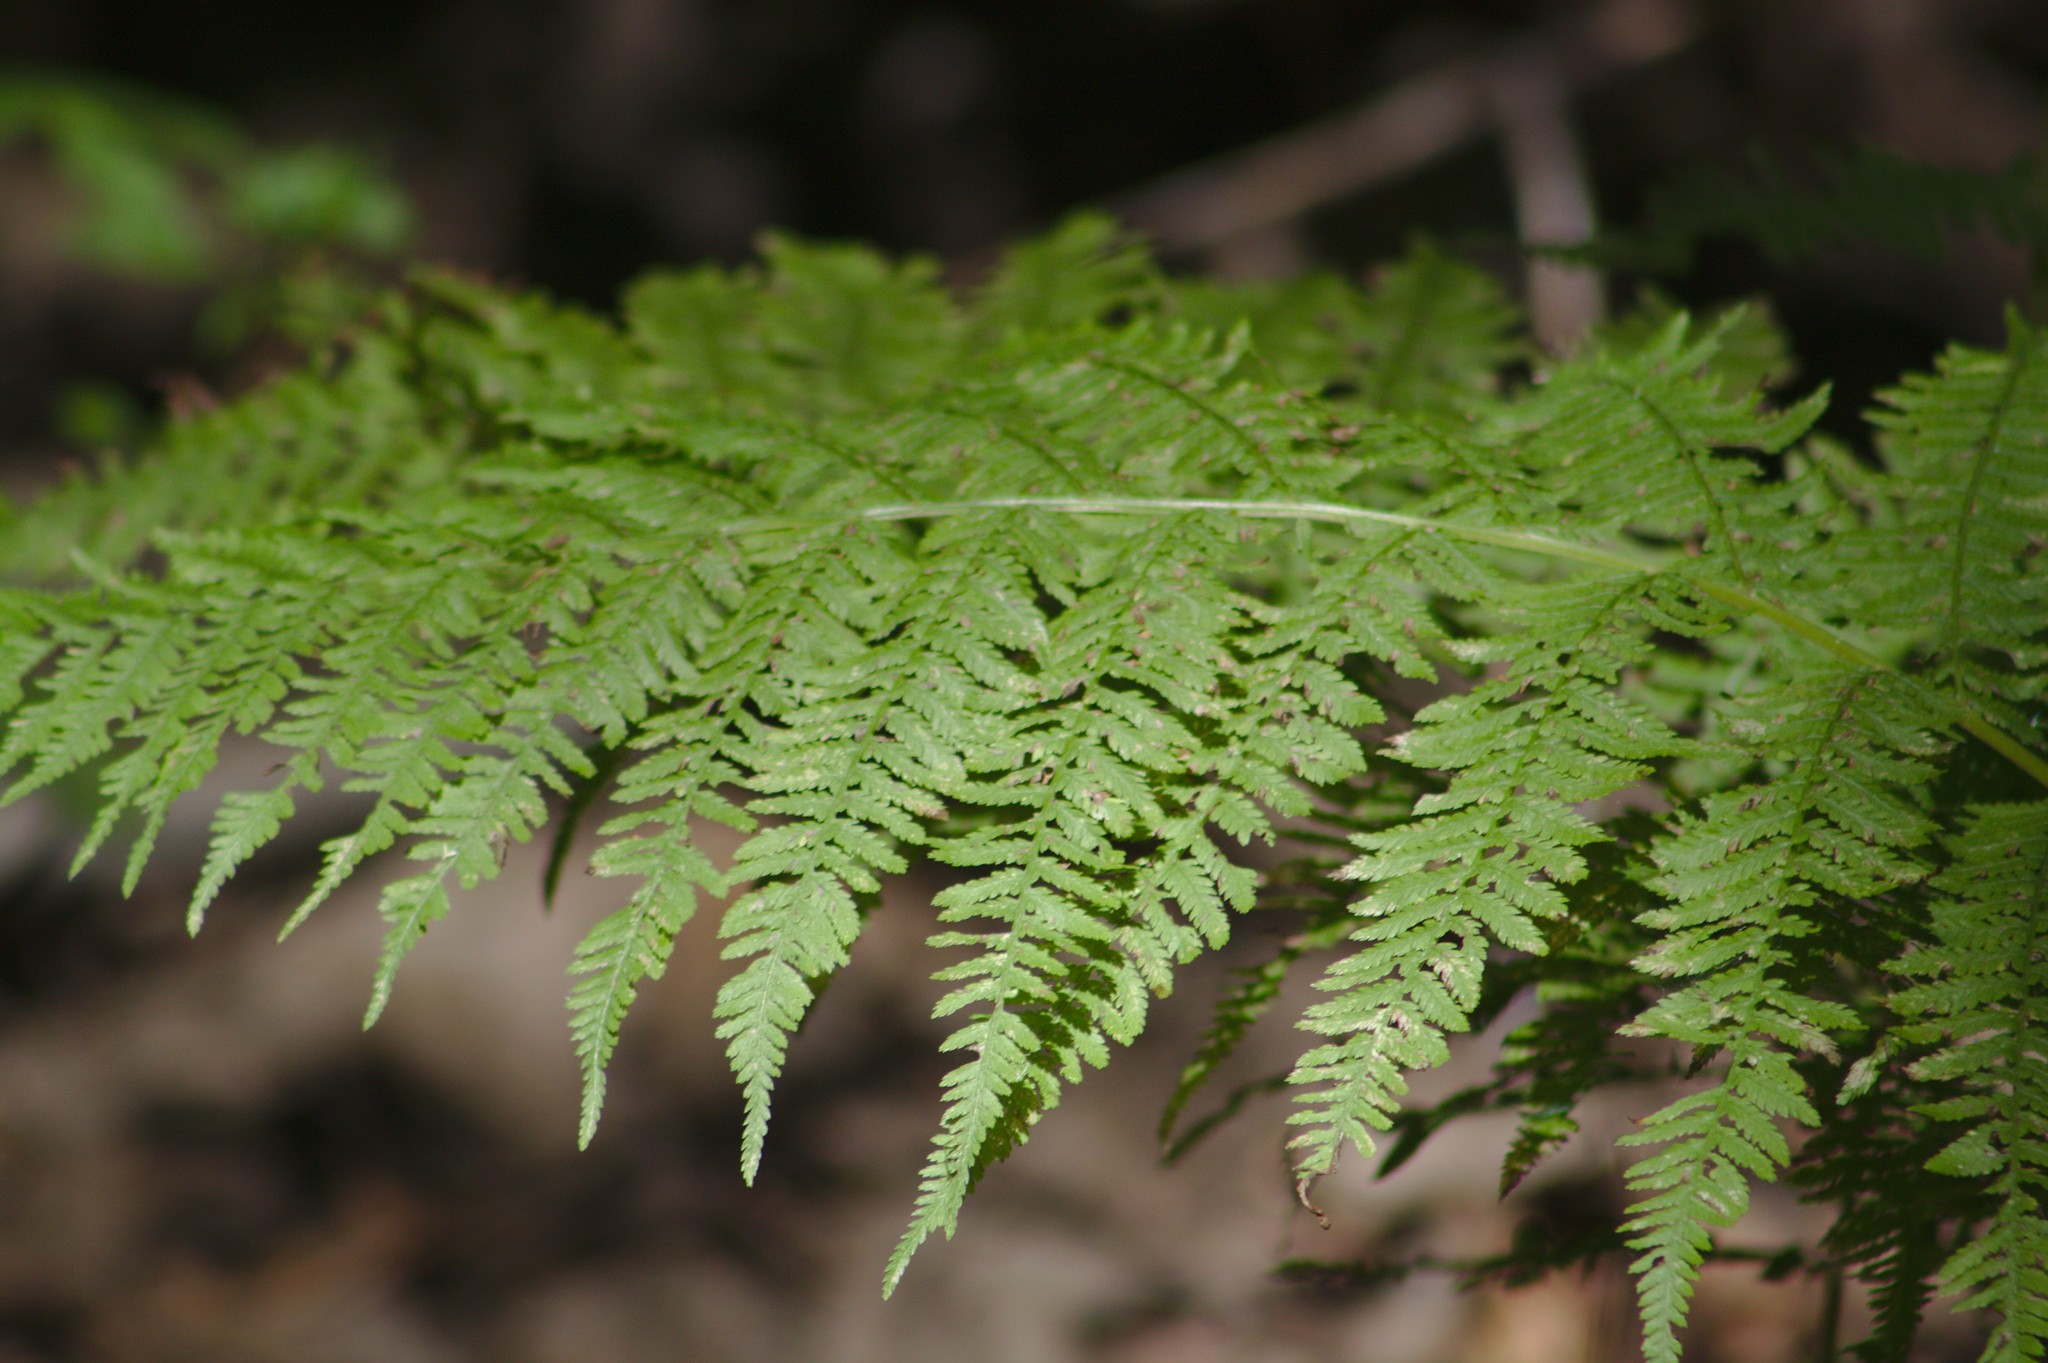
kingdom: Plantae
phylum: Tracheophyta
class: Polypodiopsida
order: Polypodiales
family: Athyriaceae
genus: Athyrium
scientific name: Athyrium angustum
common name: Northern lady fern
